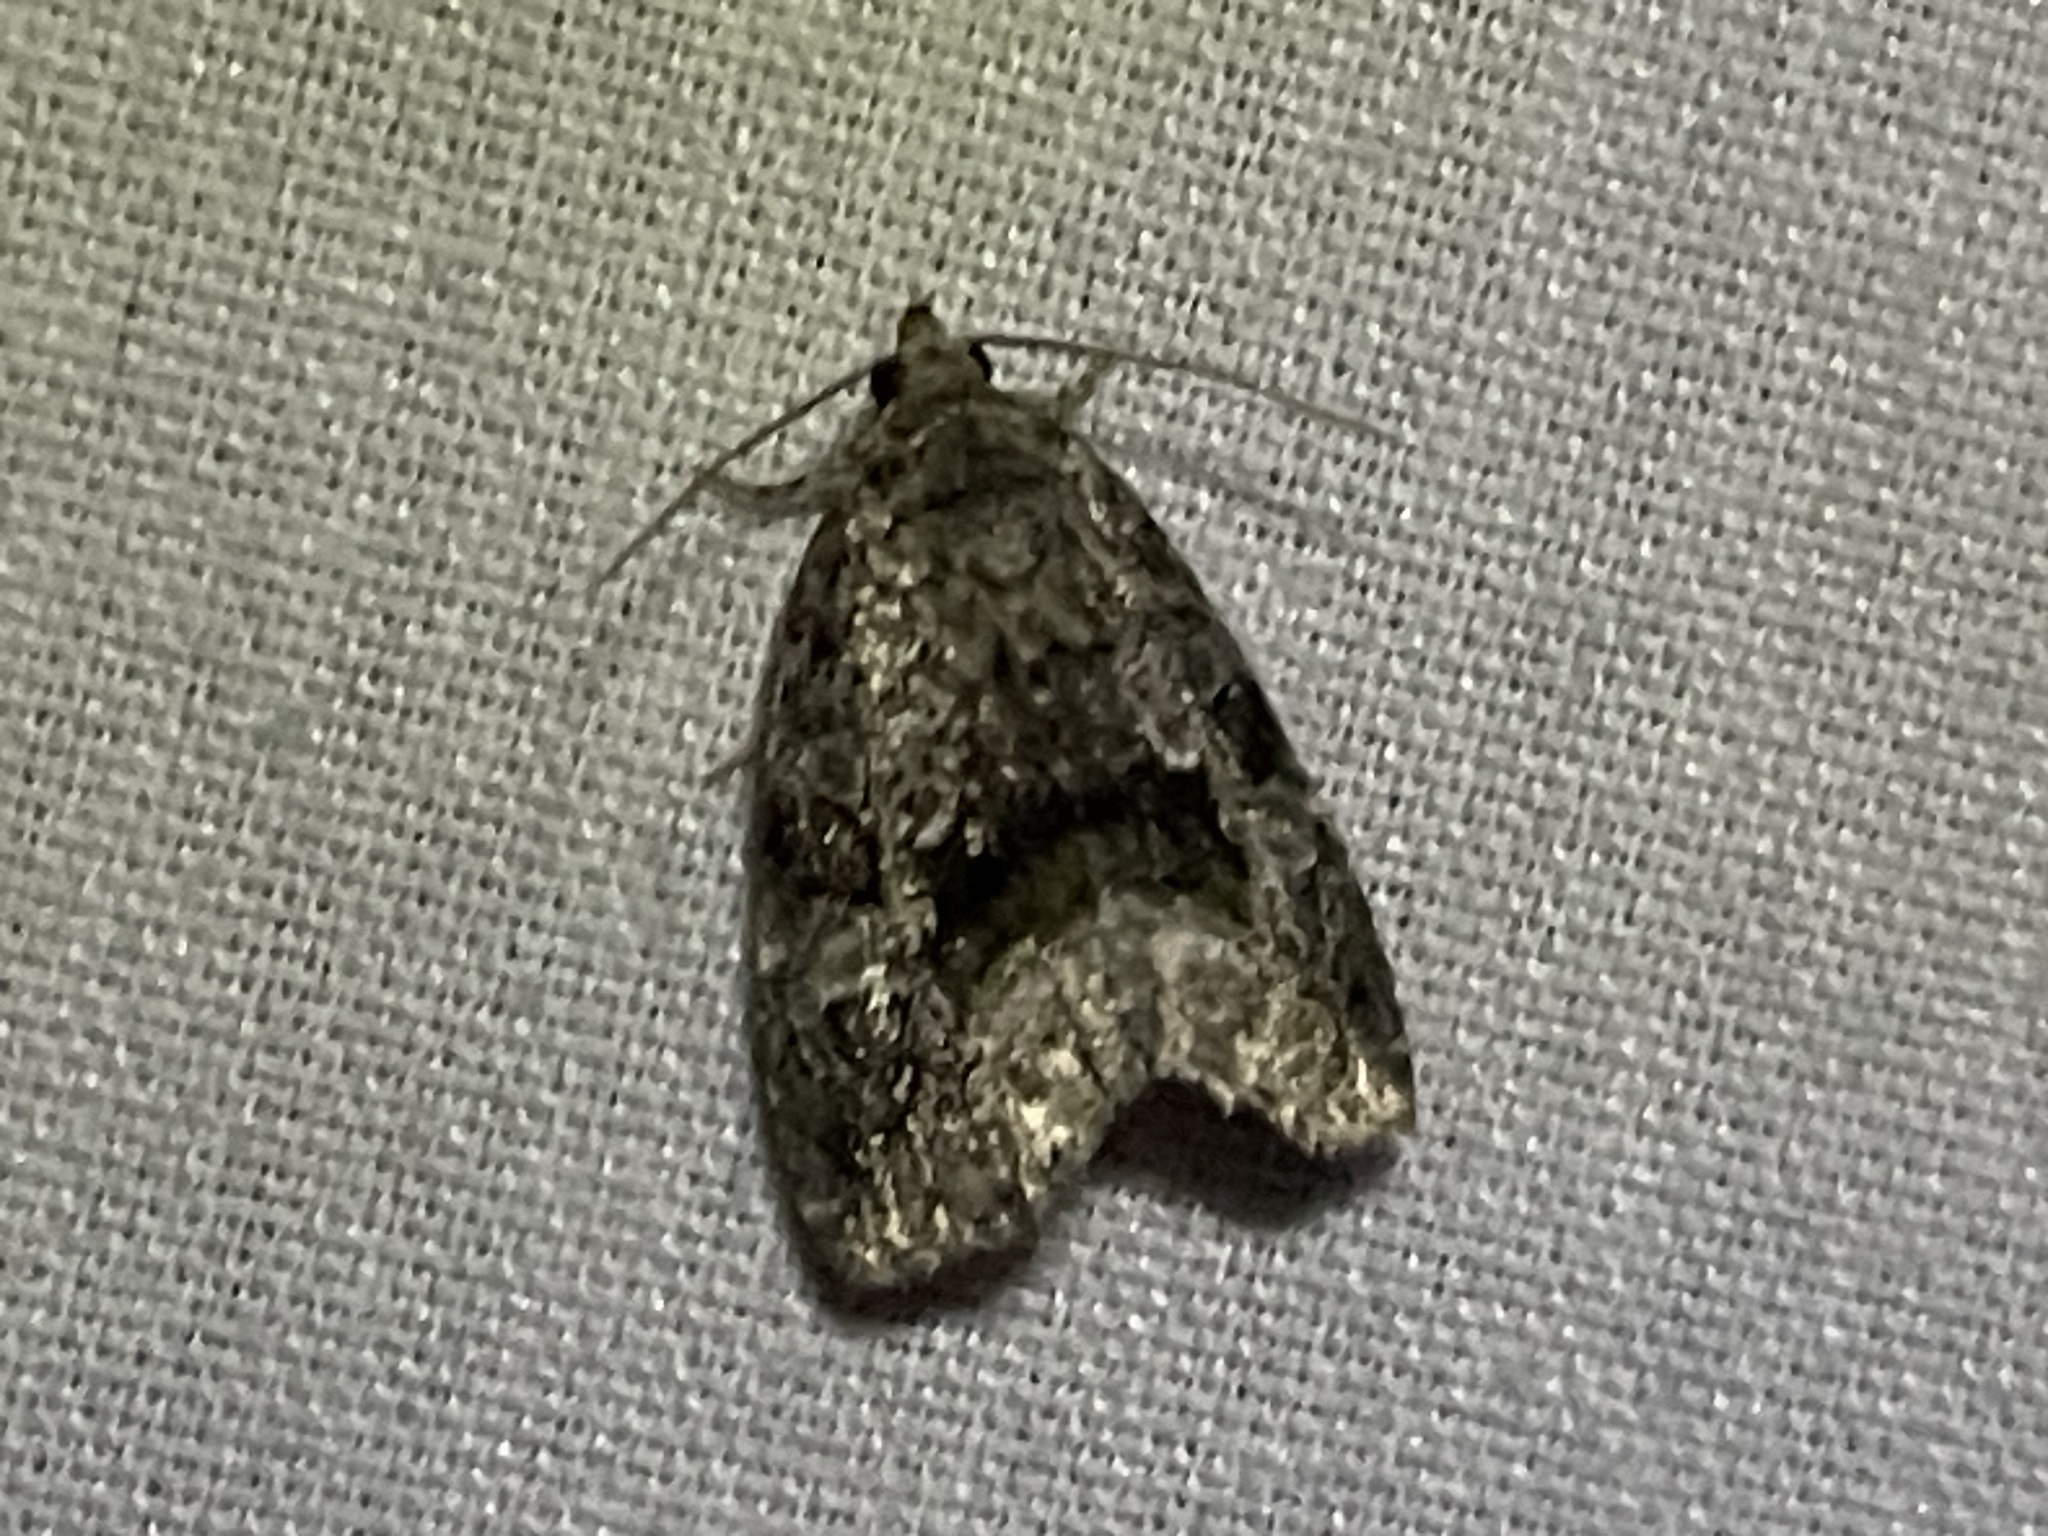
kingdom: Animalia
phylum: Arthropoda
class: Insecta
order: Lepidoptera
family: Noctuidae
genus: Protodeltote
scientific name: Protodeltote muscosula
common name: Large mossy glyph
